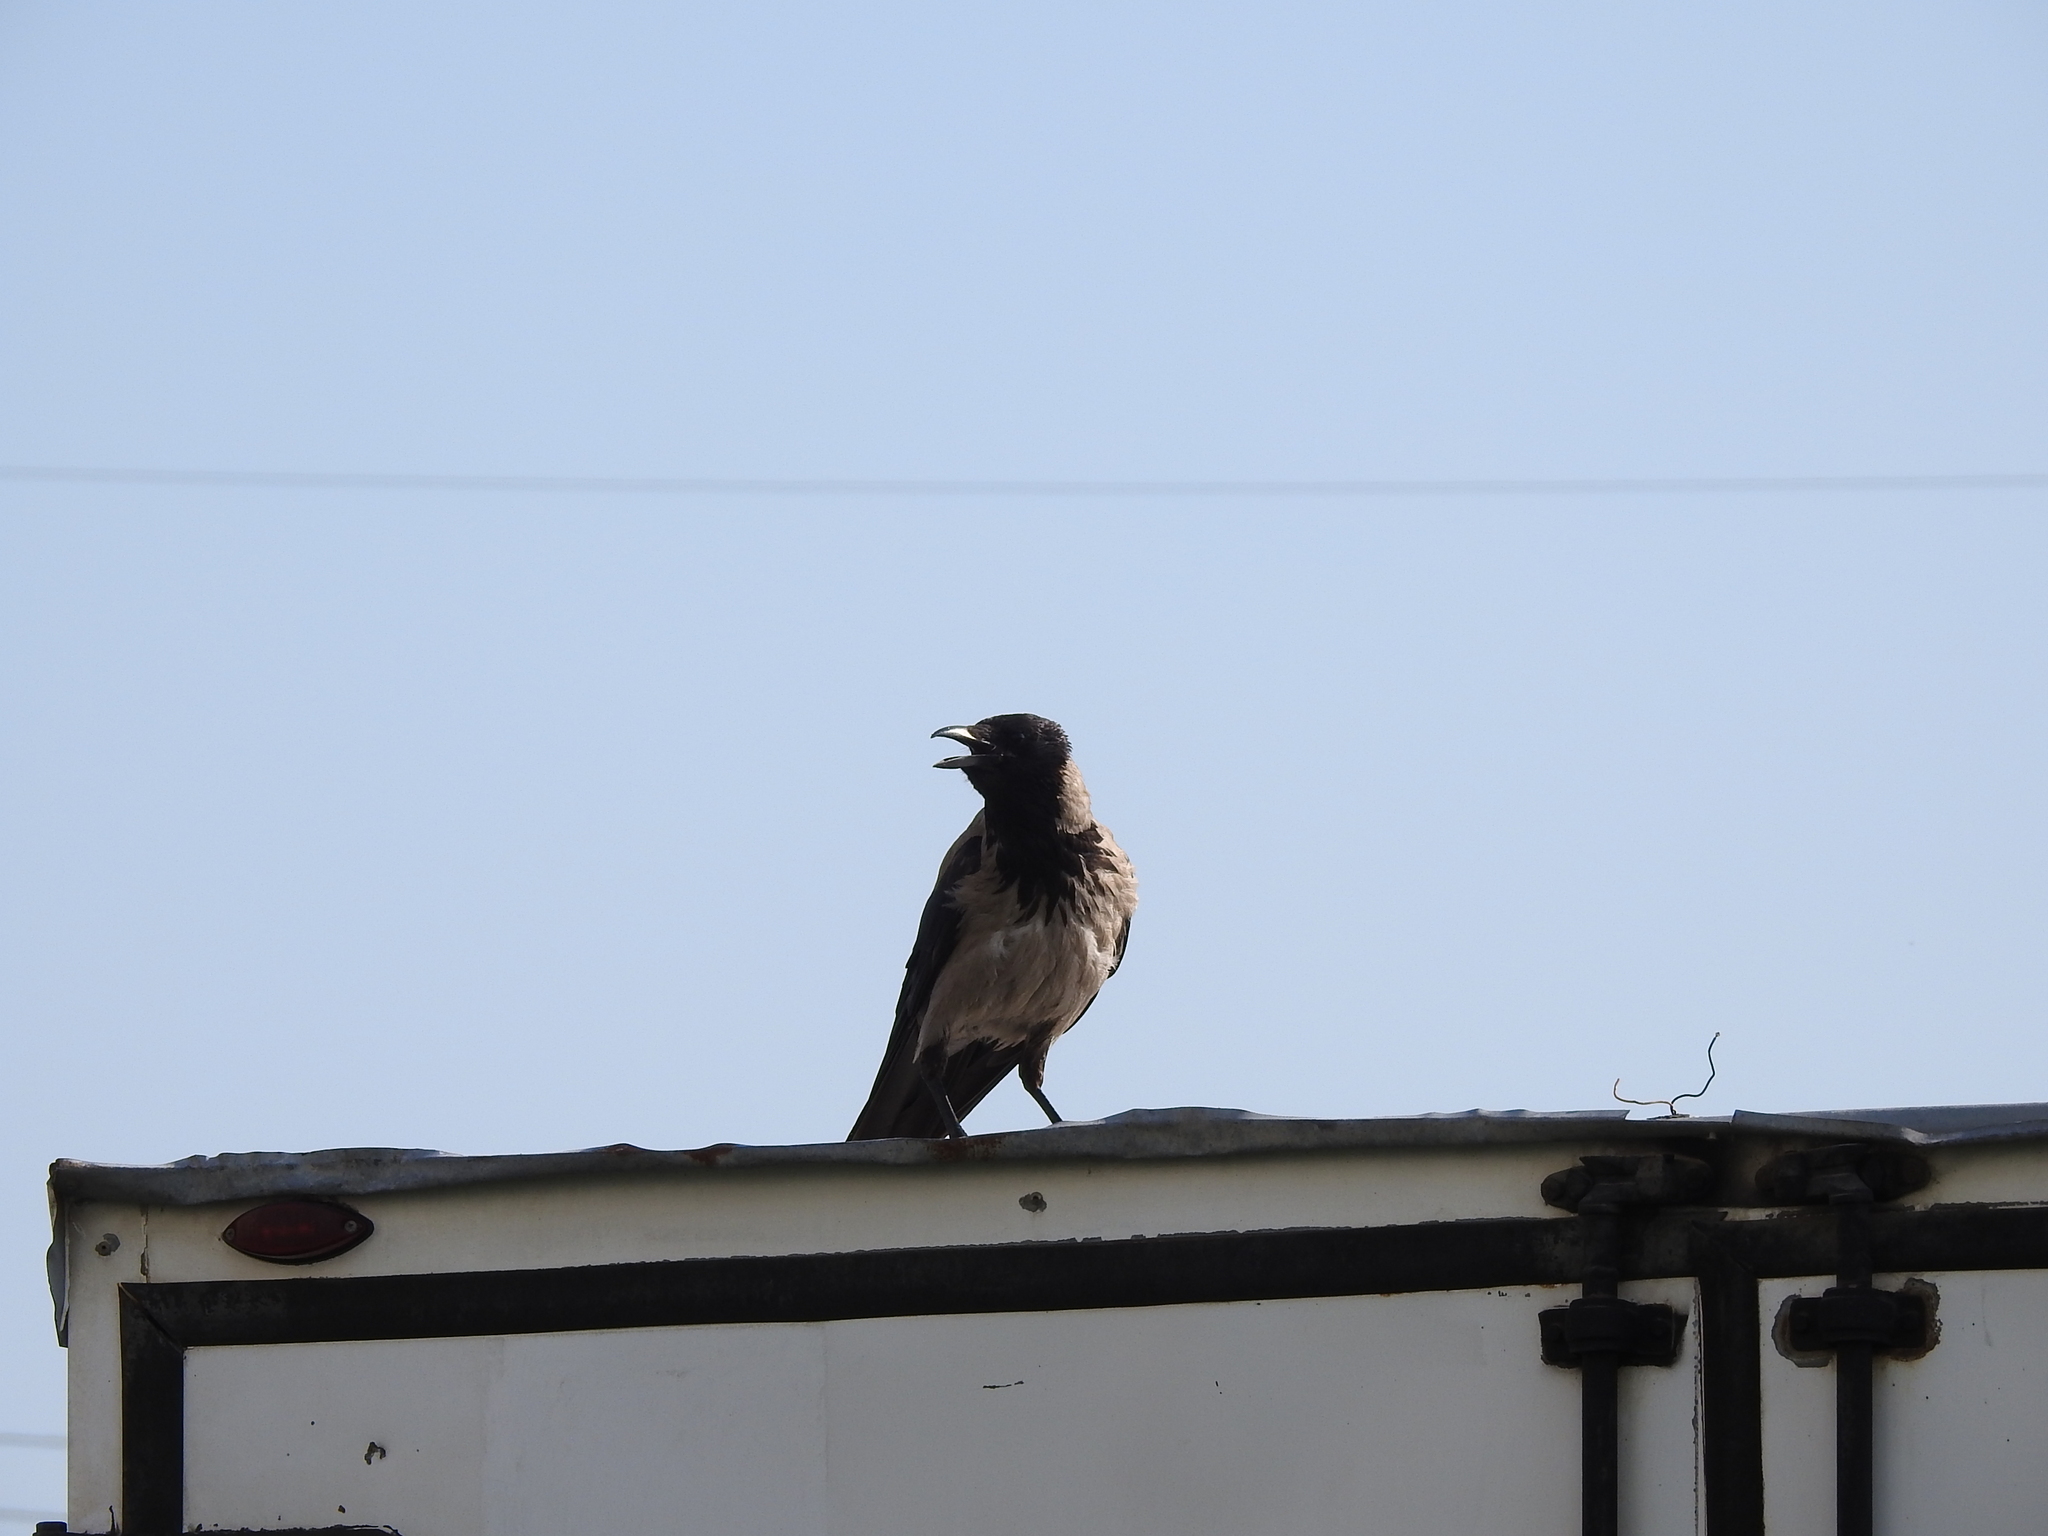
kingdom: Animalia
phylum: Chordata
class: Aves
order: Passeriformes
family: Corvidae
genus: Corvus
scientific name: Corvus cornix
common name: Hooded crow
